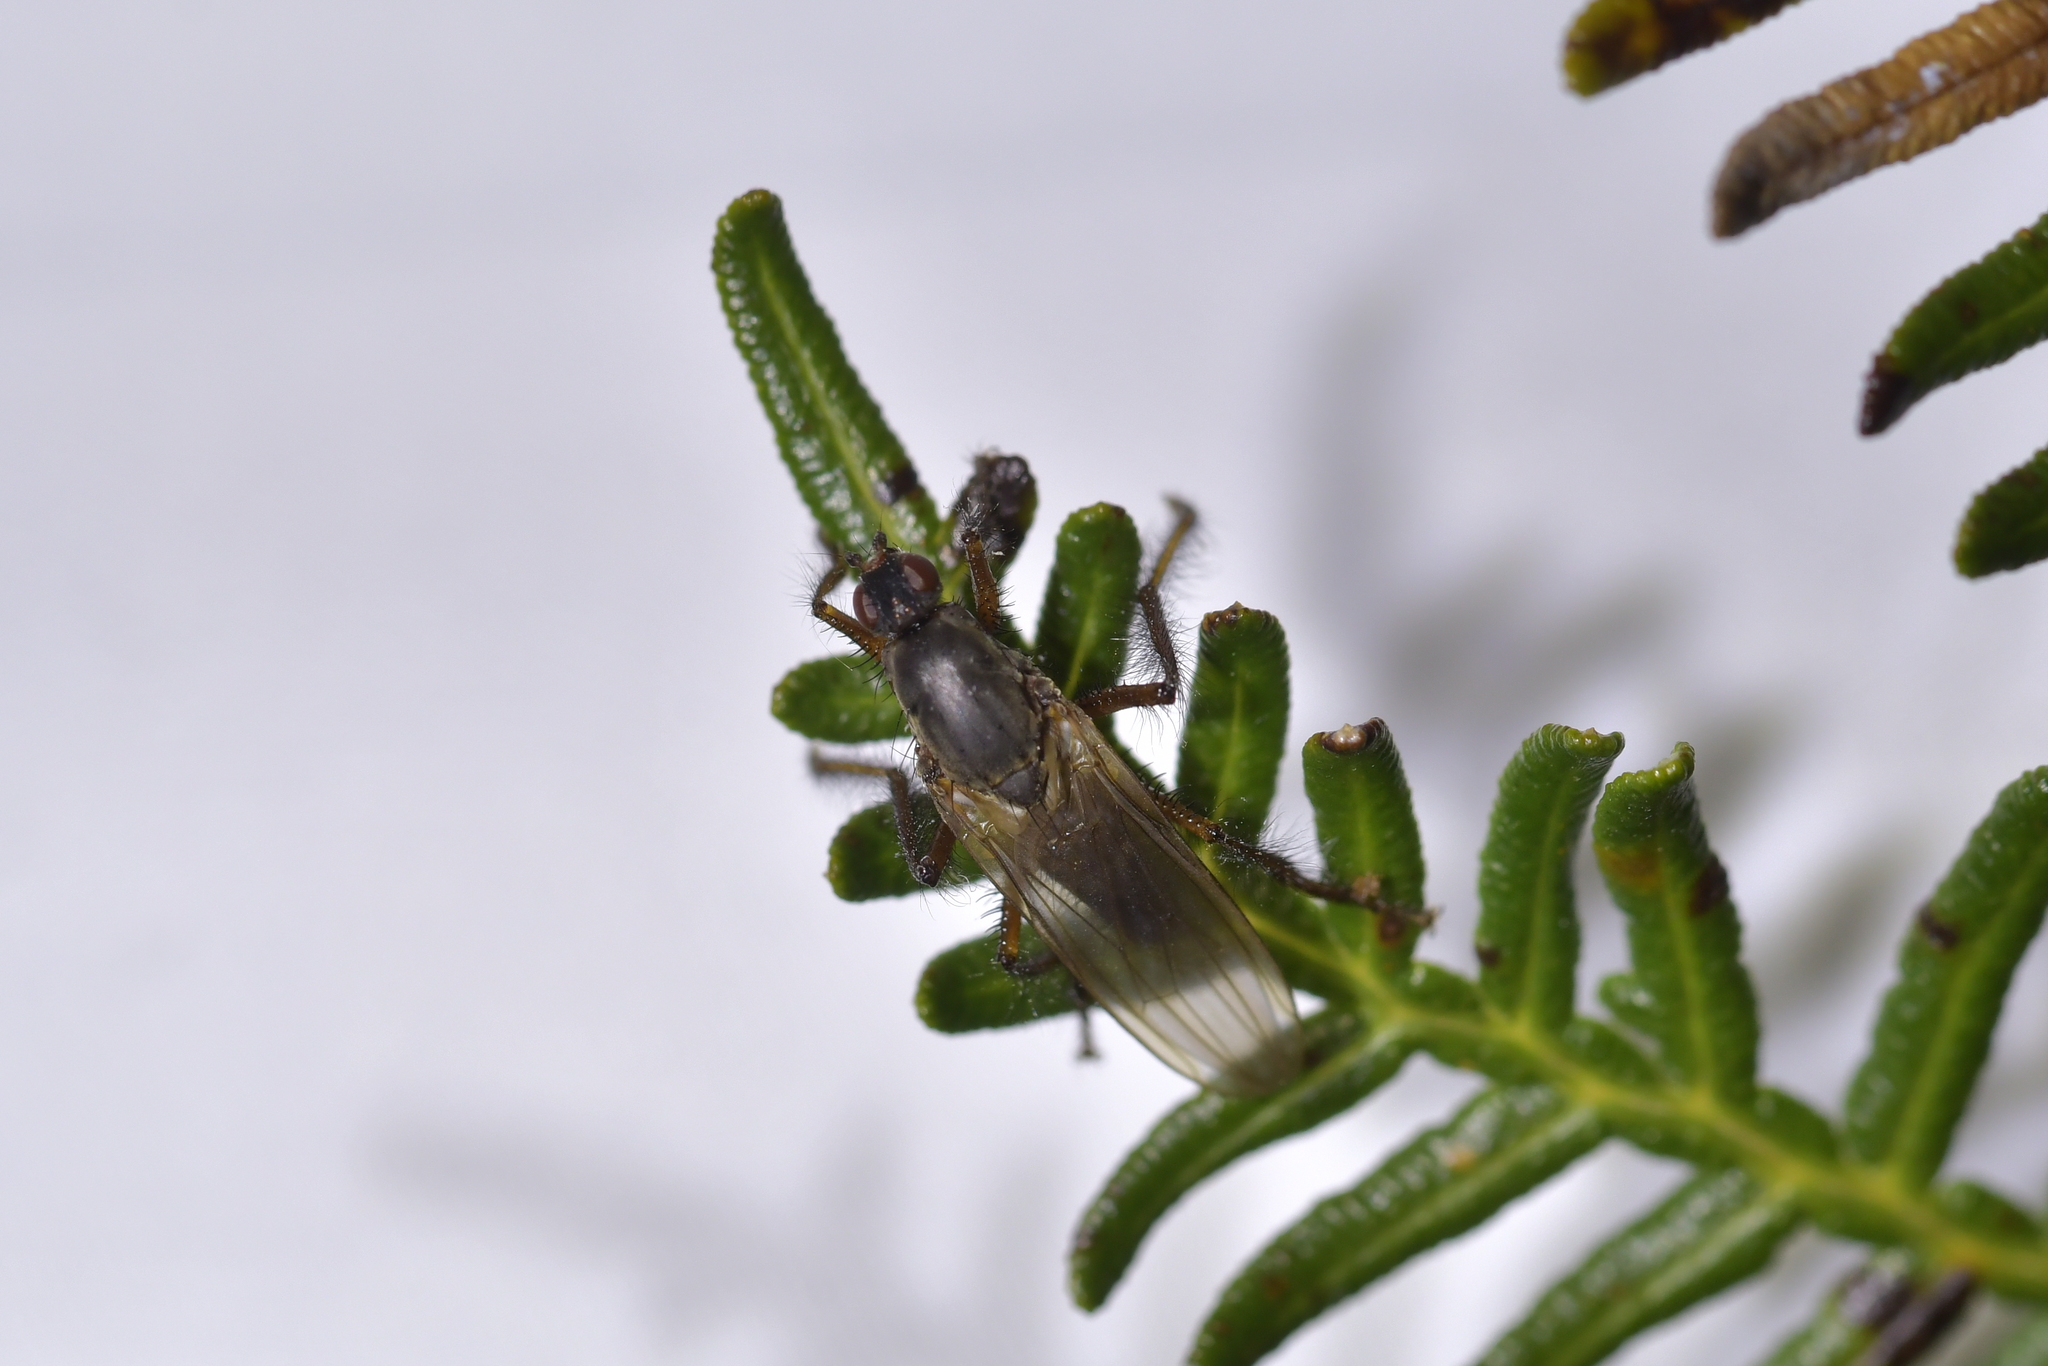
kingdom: Animalia
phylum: Arthropoda
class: Insecta
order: Diptera
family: Coelopidae
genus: Chaetocoelopa
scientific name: Chaetocoelopa littoralis
